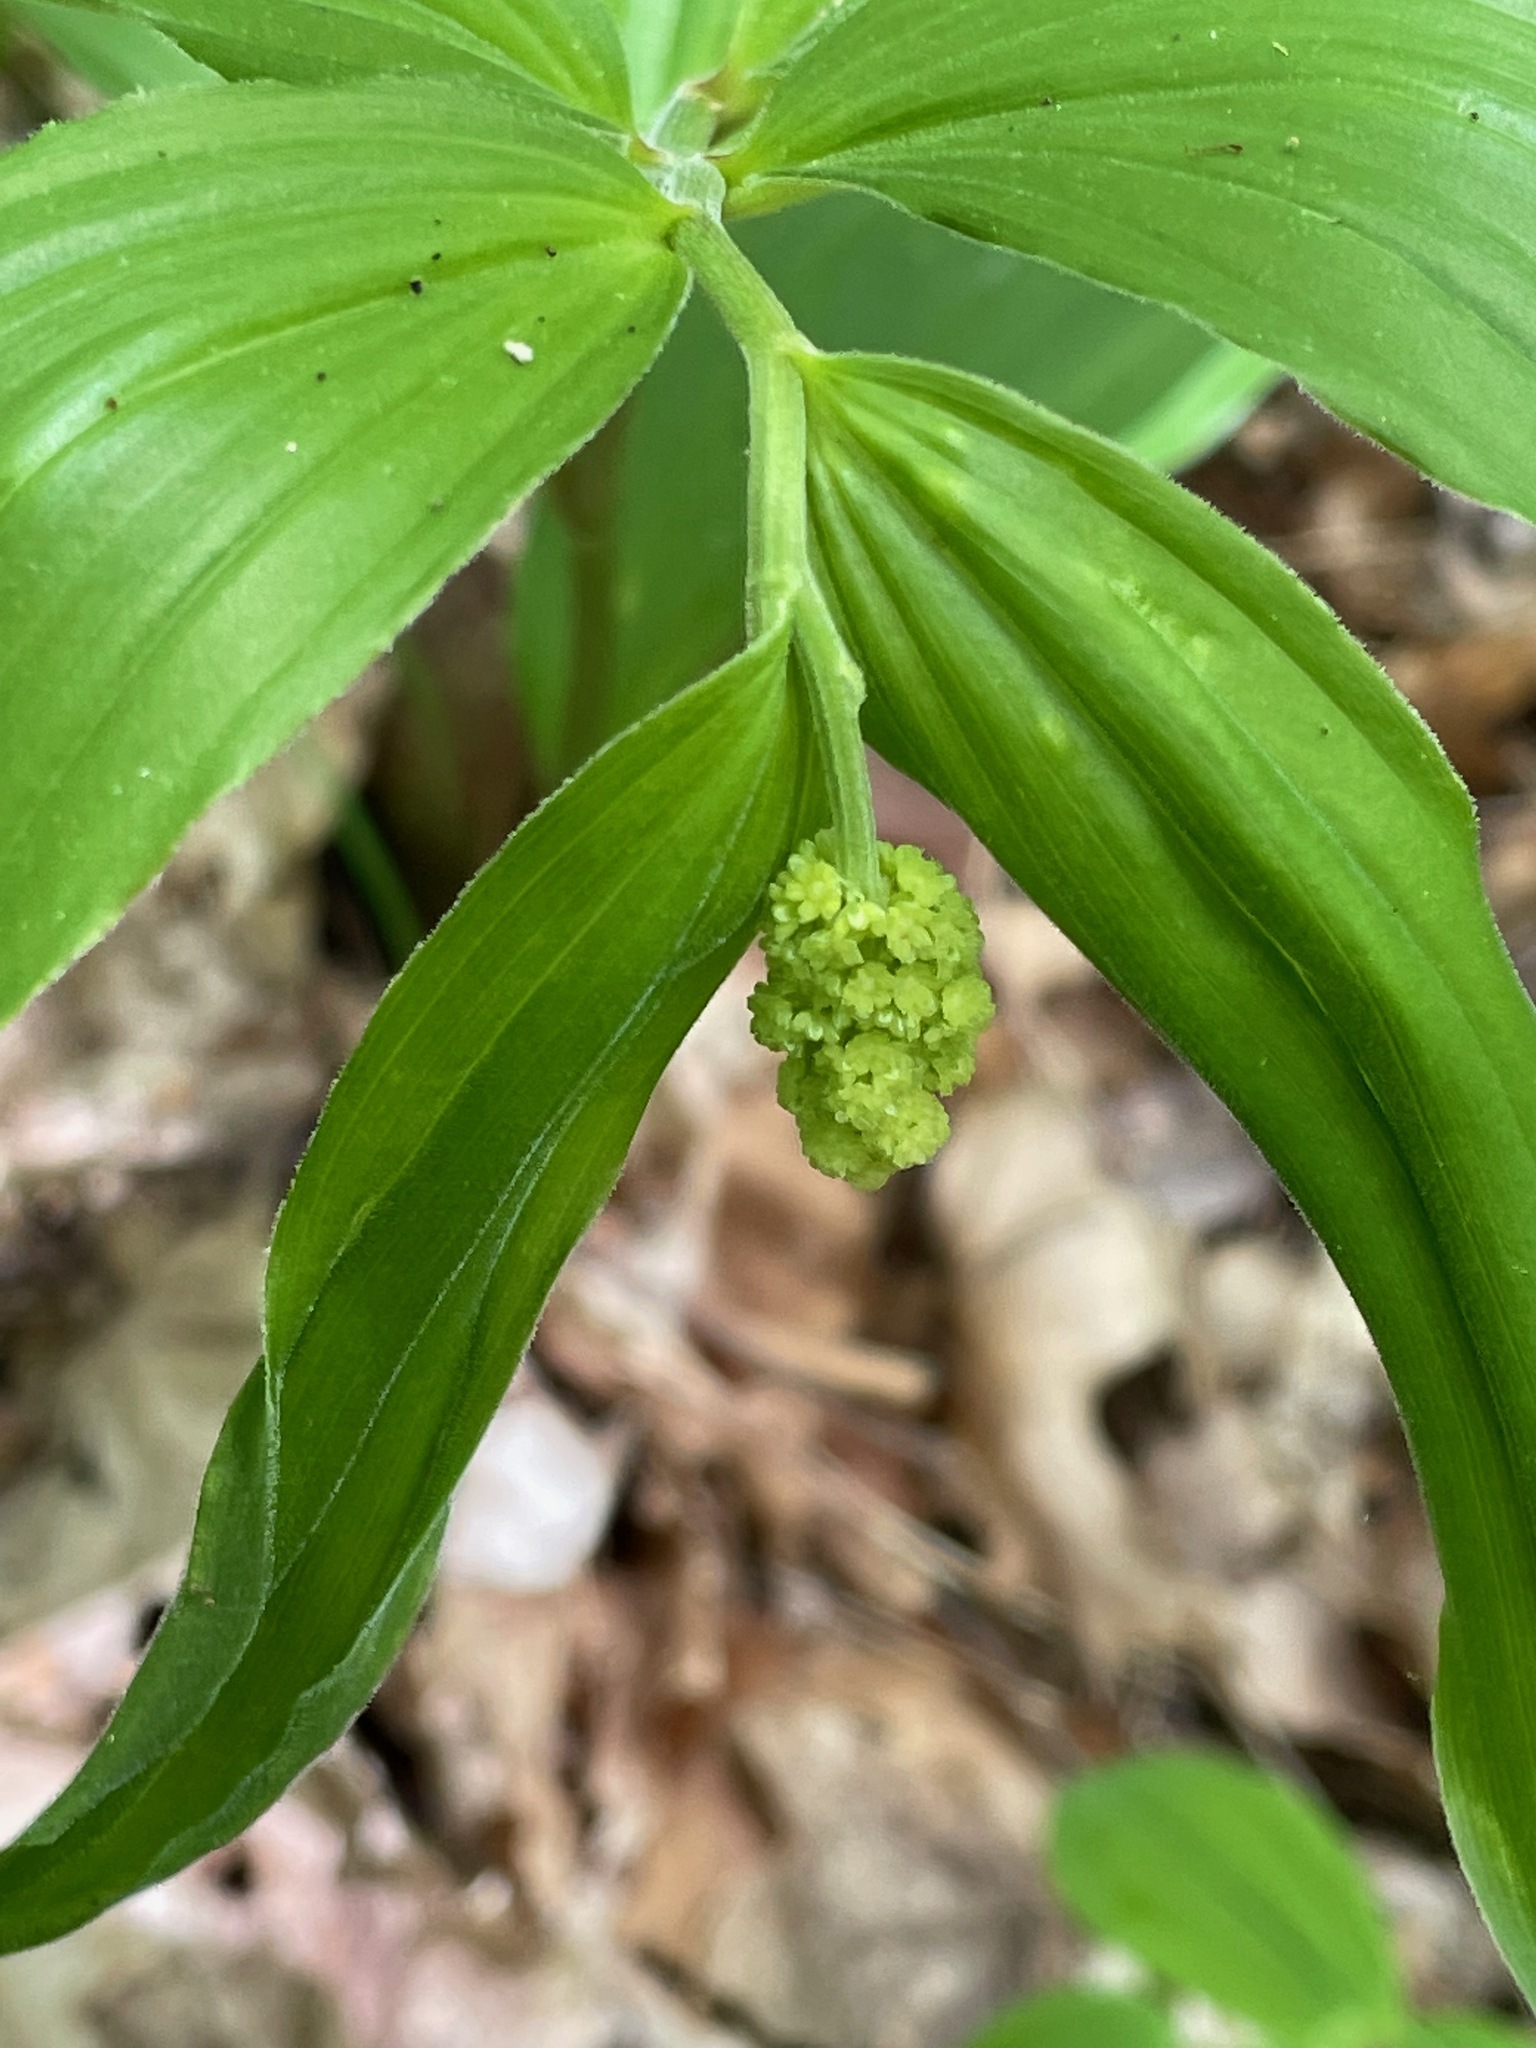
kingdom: Plantae
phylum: Tracheophyta
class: Liliopsida
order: Asparagales
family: Asparagaceae
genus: Maianthemum
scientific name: Maianthemum racemosum
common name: False spikenard
